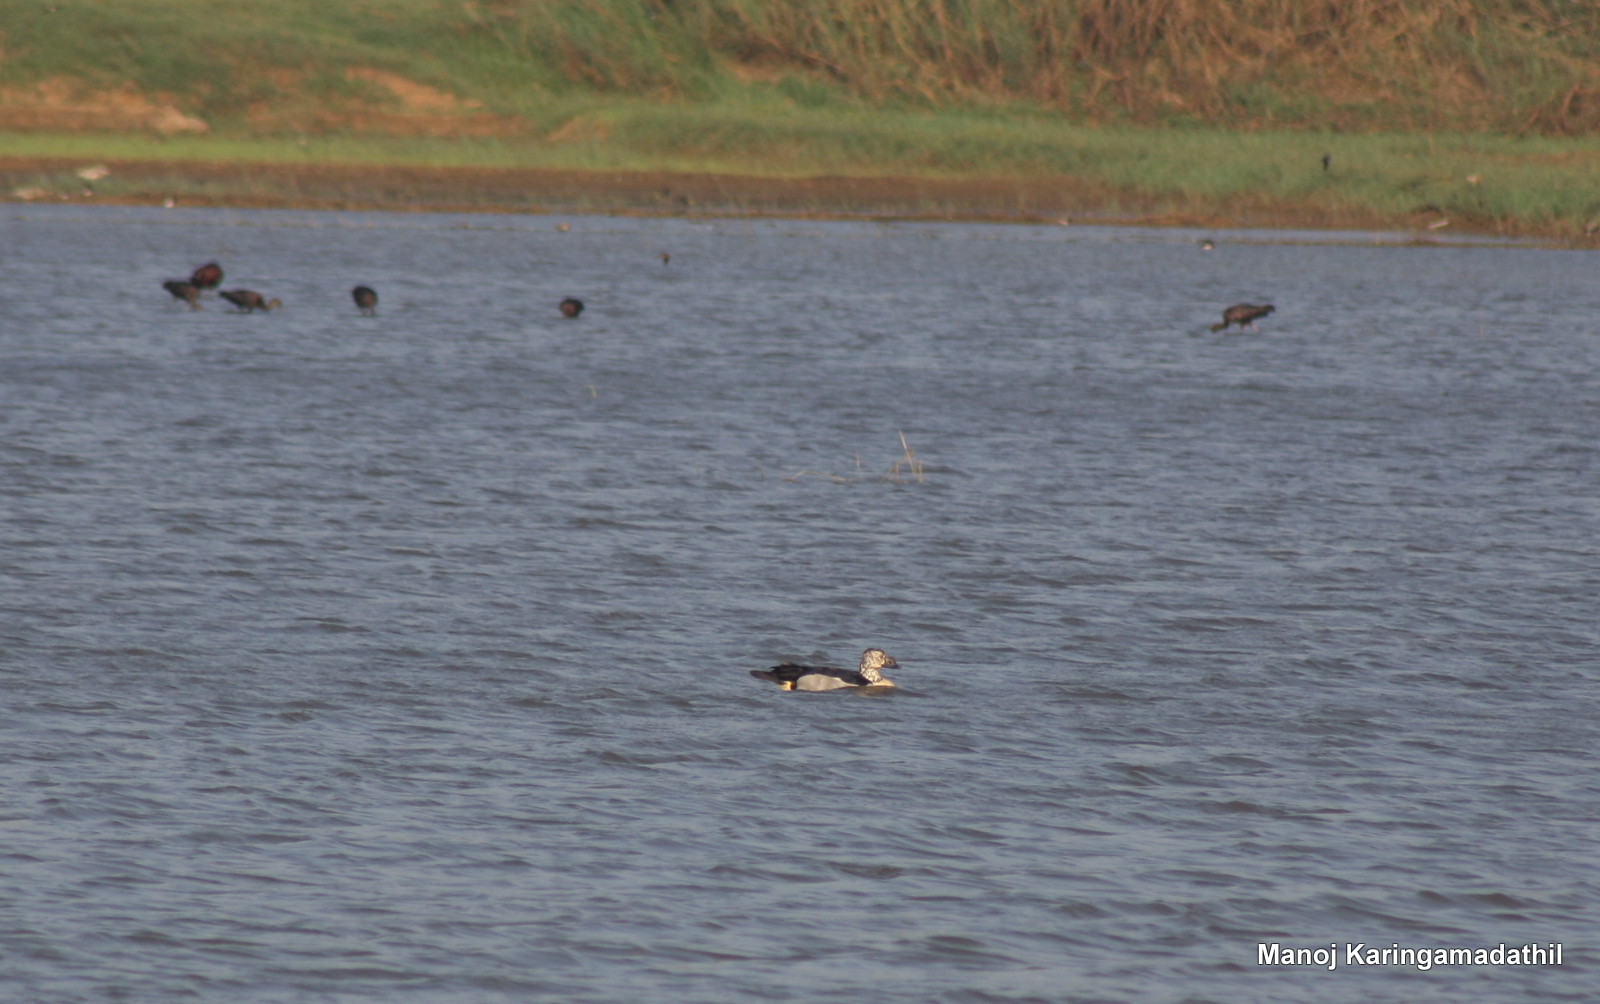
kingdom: Animalia
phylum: Chordata
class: Aves
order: Anseriformes
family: Anatidae
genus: Sarkidiornis
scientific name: Sarkidiornis melanotos
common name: Comb duck
